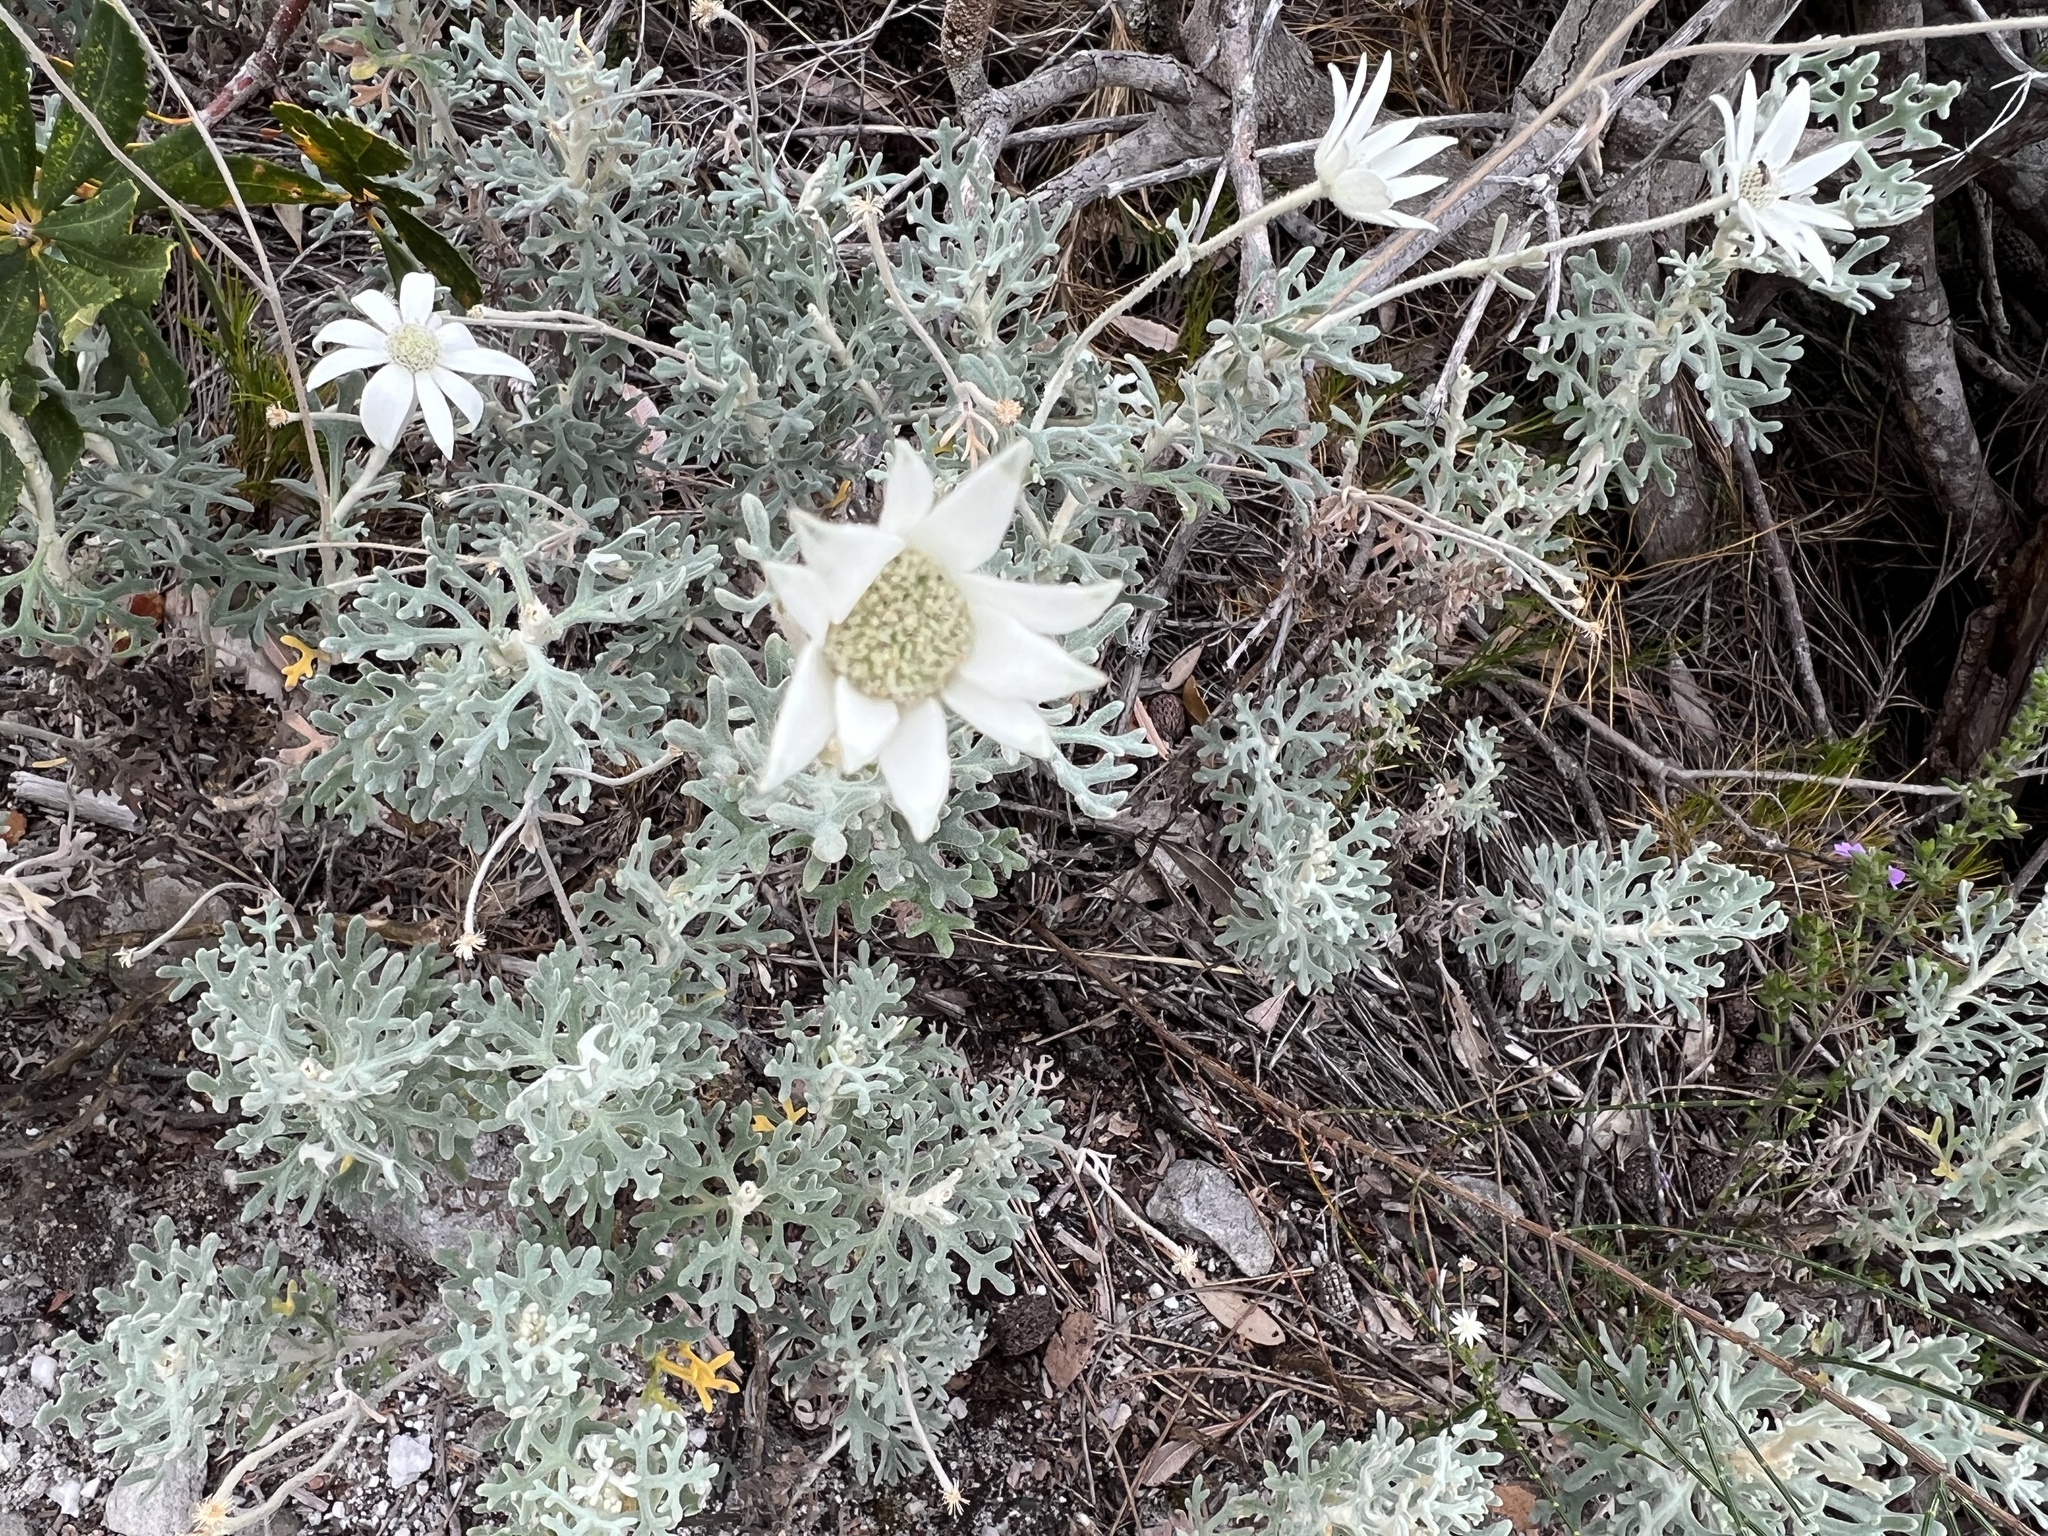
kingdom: Plantae
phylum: Tracheophyta
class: Magnoliopsida
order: Apiales
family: Apiaceae
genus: Actinotus
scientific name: Actinotus helianthi
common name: Flannel-flower
